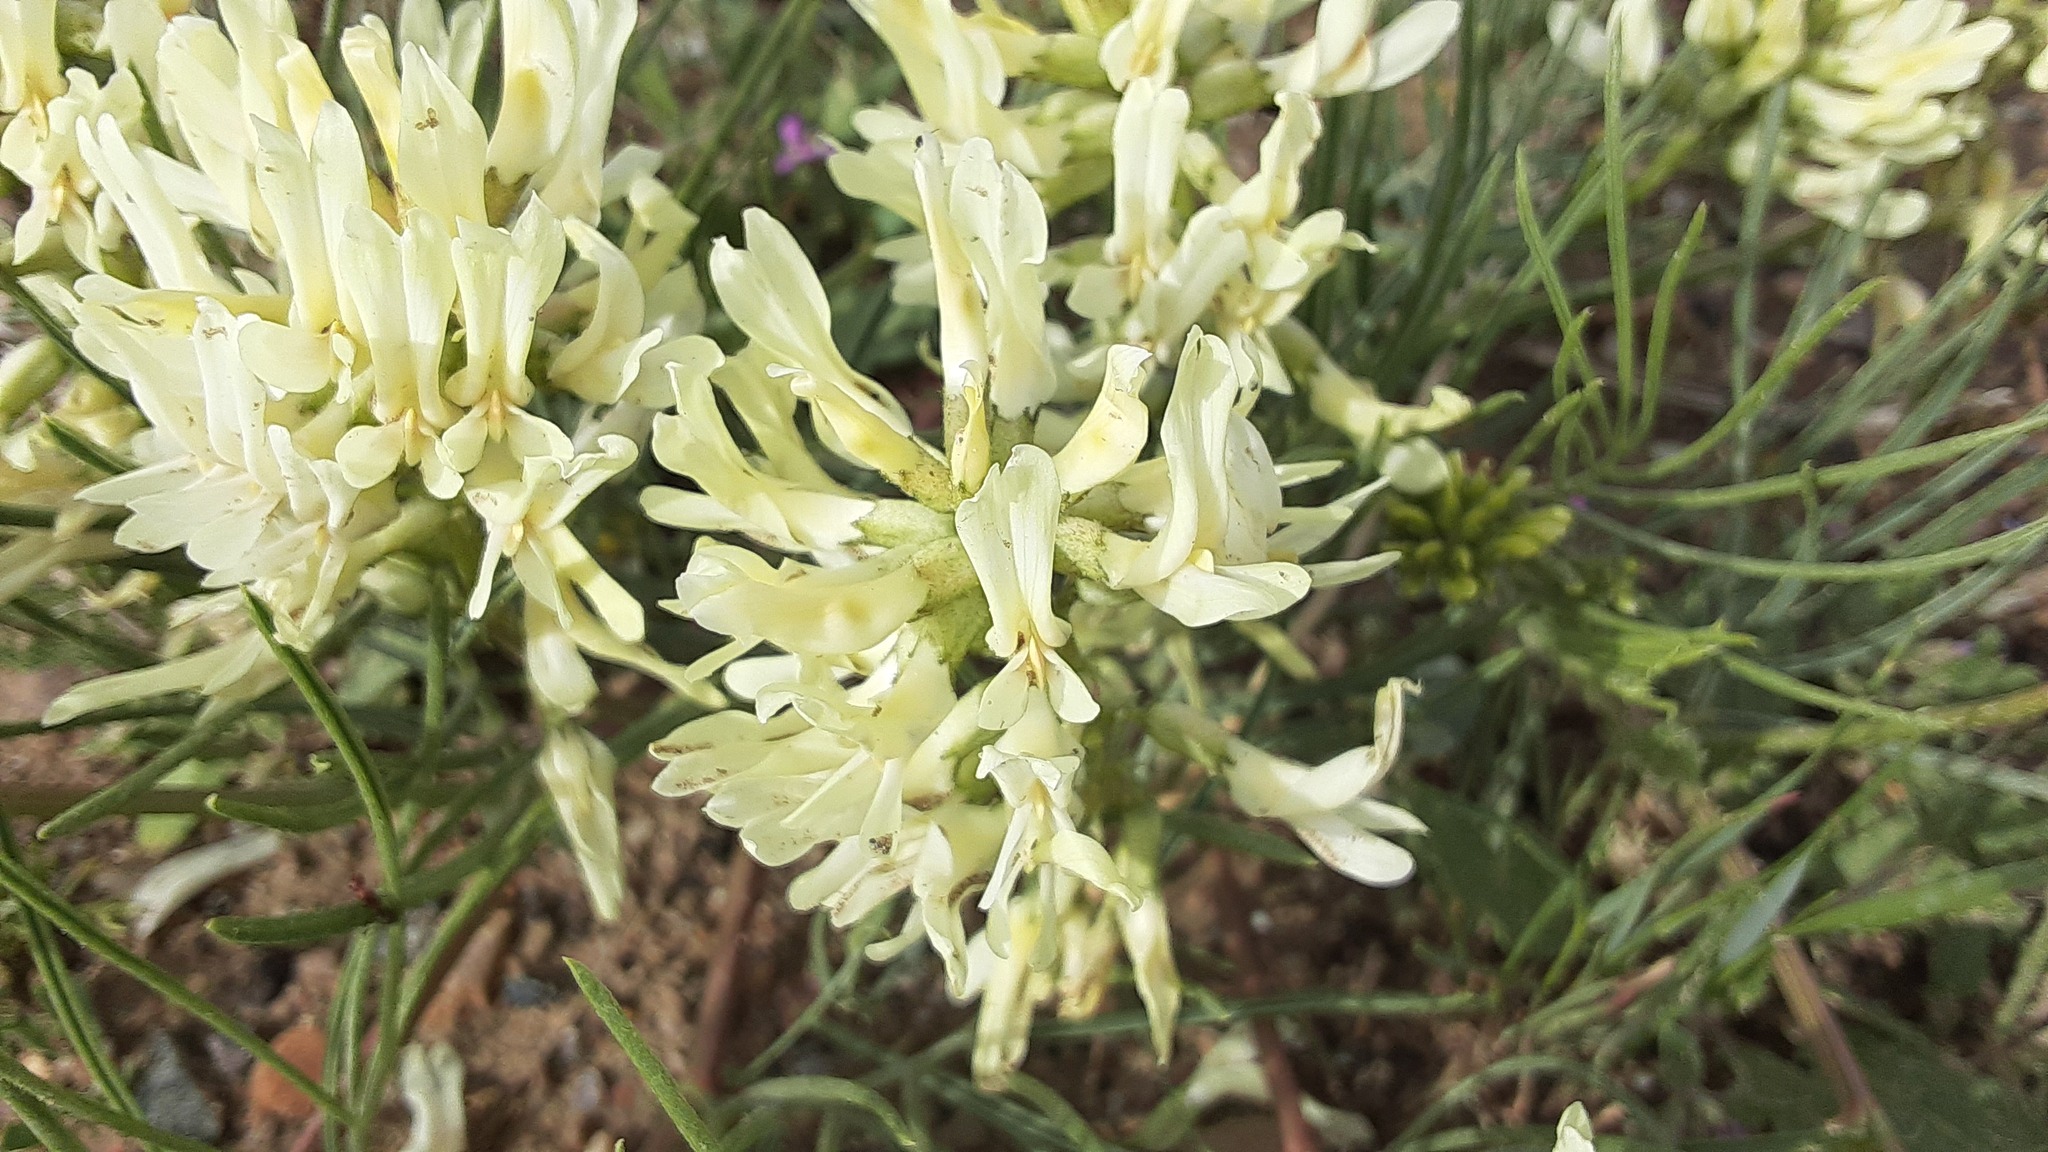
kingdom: Plantae
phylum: Tracheophyta
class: Magnoliopsida
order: Fabales
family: Fabaceae
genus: Astragalus
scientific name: Astragalus pectinatus
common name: Tine-leaf milk-vetch
